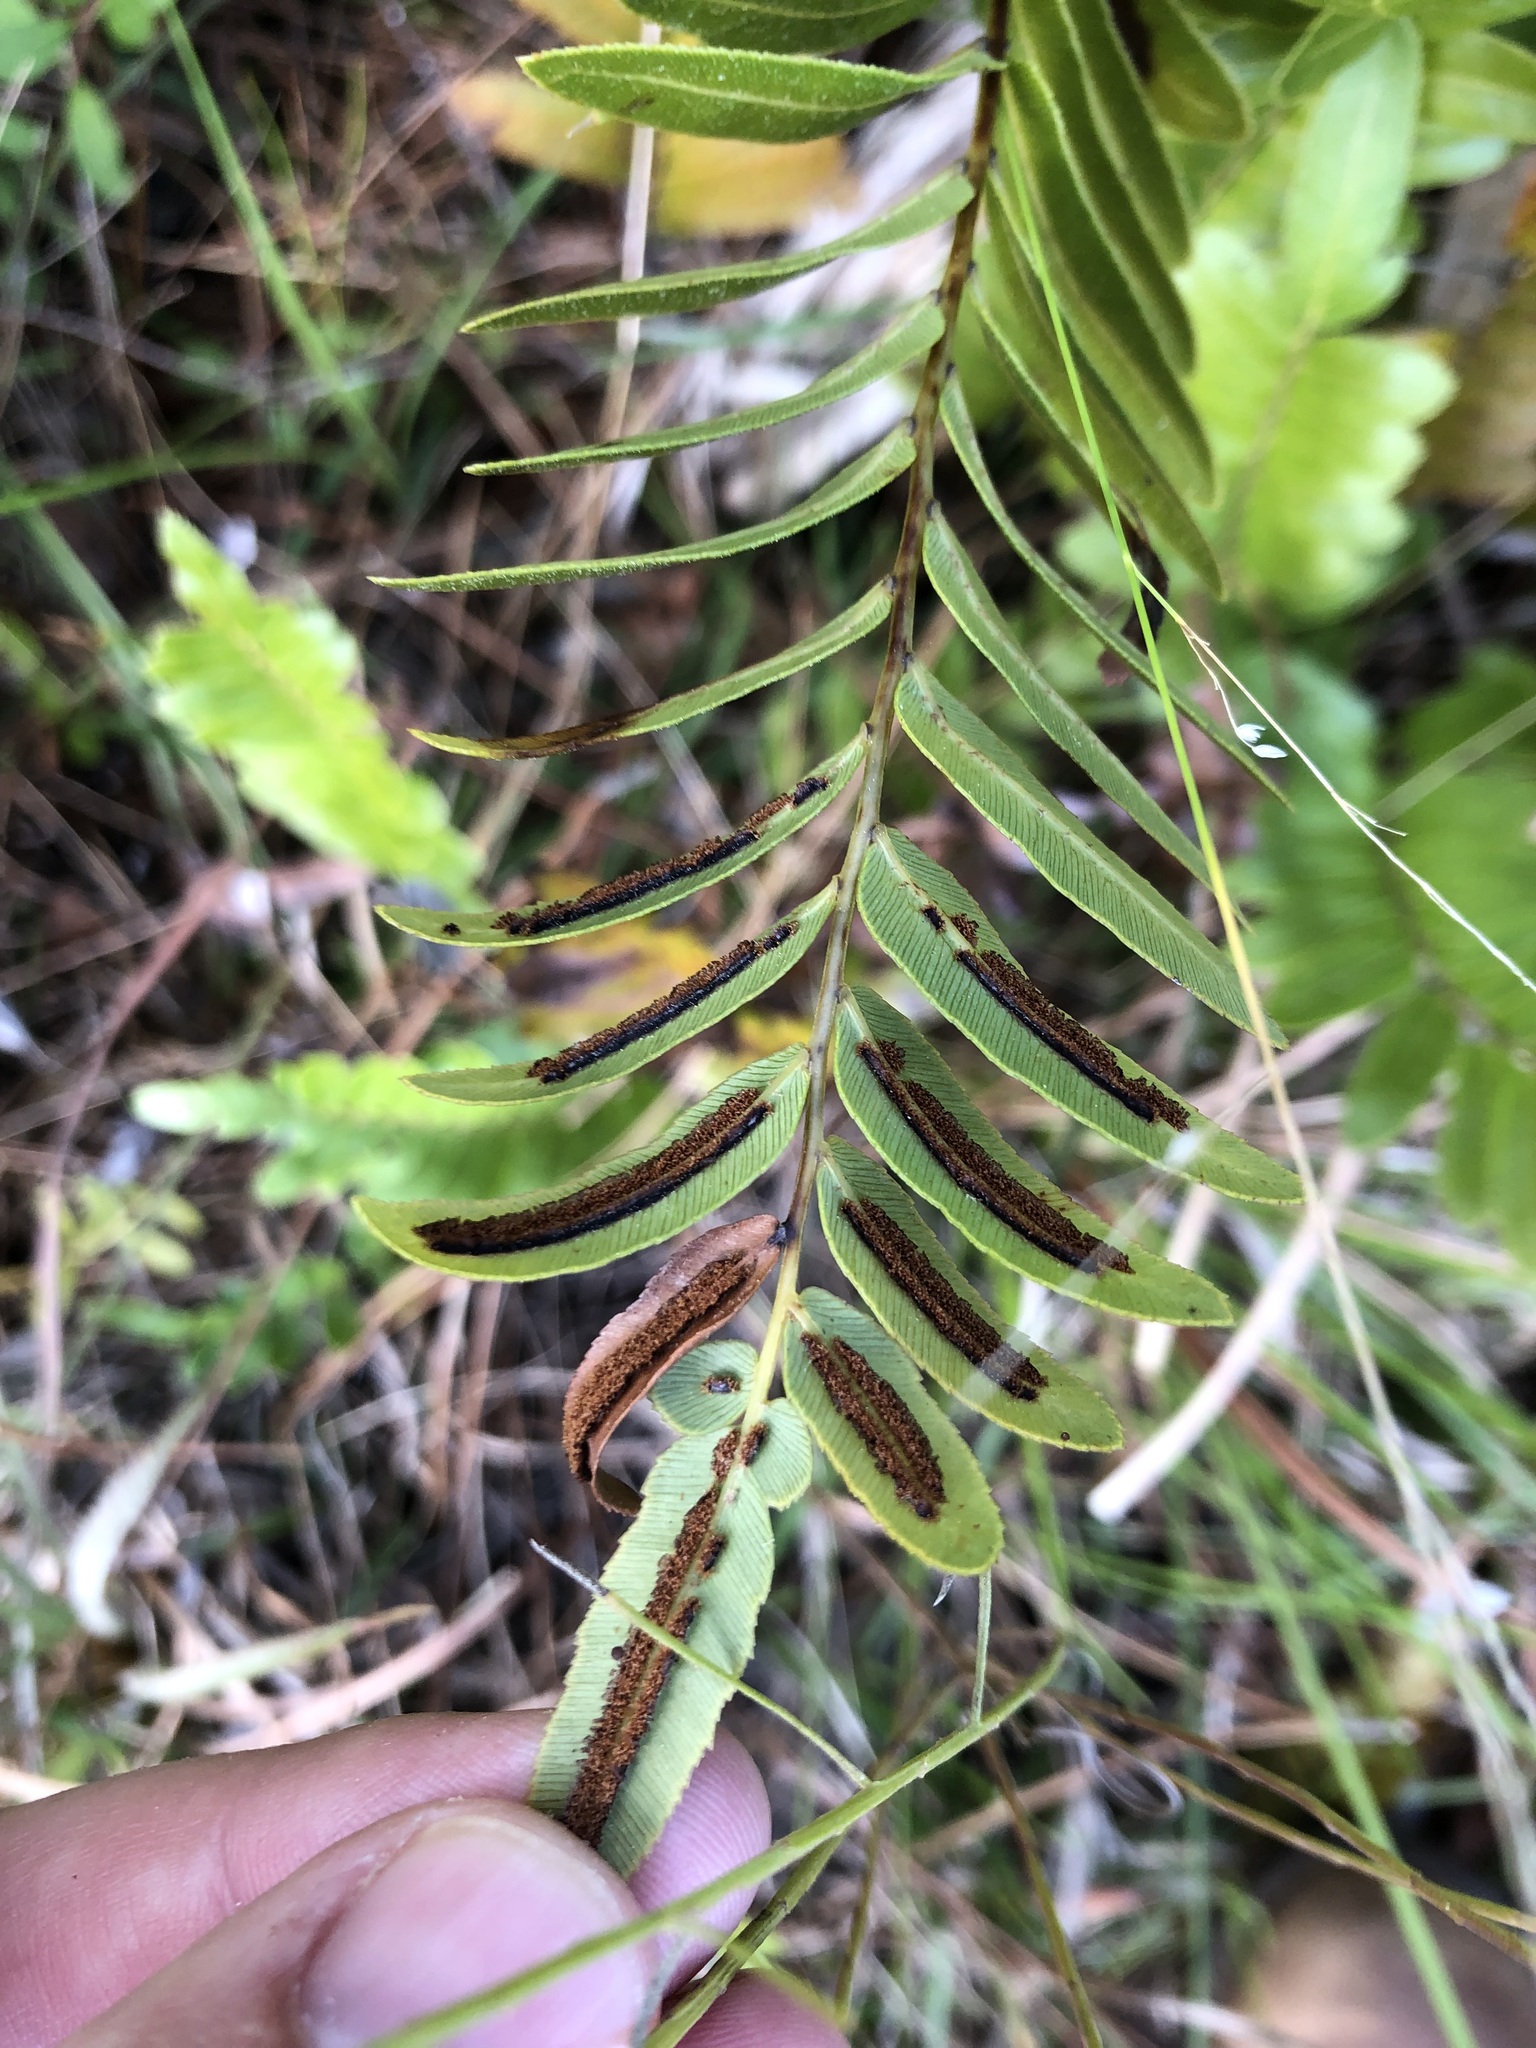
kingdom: Plantae
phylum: Tracheophyta
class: Polypodiopsida
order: Polypodiales
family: Blechnaceae
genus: Telmatoblechnum
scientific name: Telmatoblechnum serrulatum
